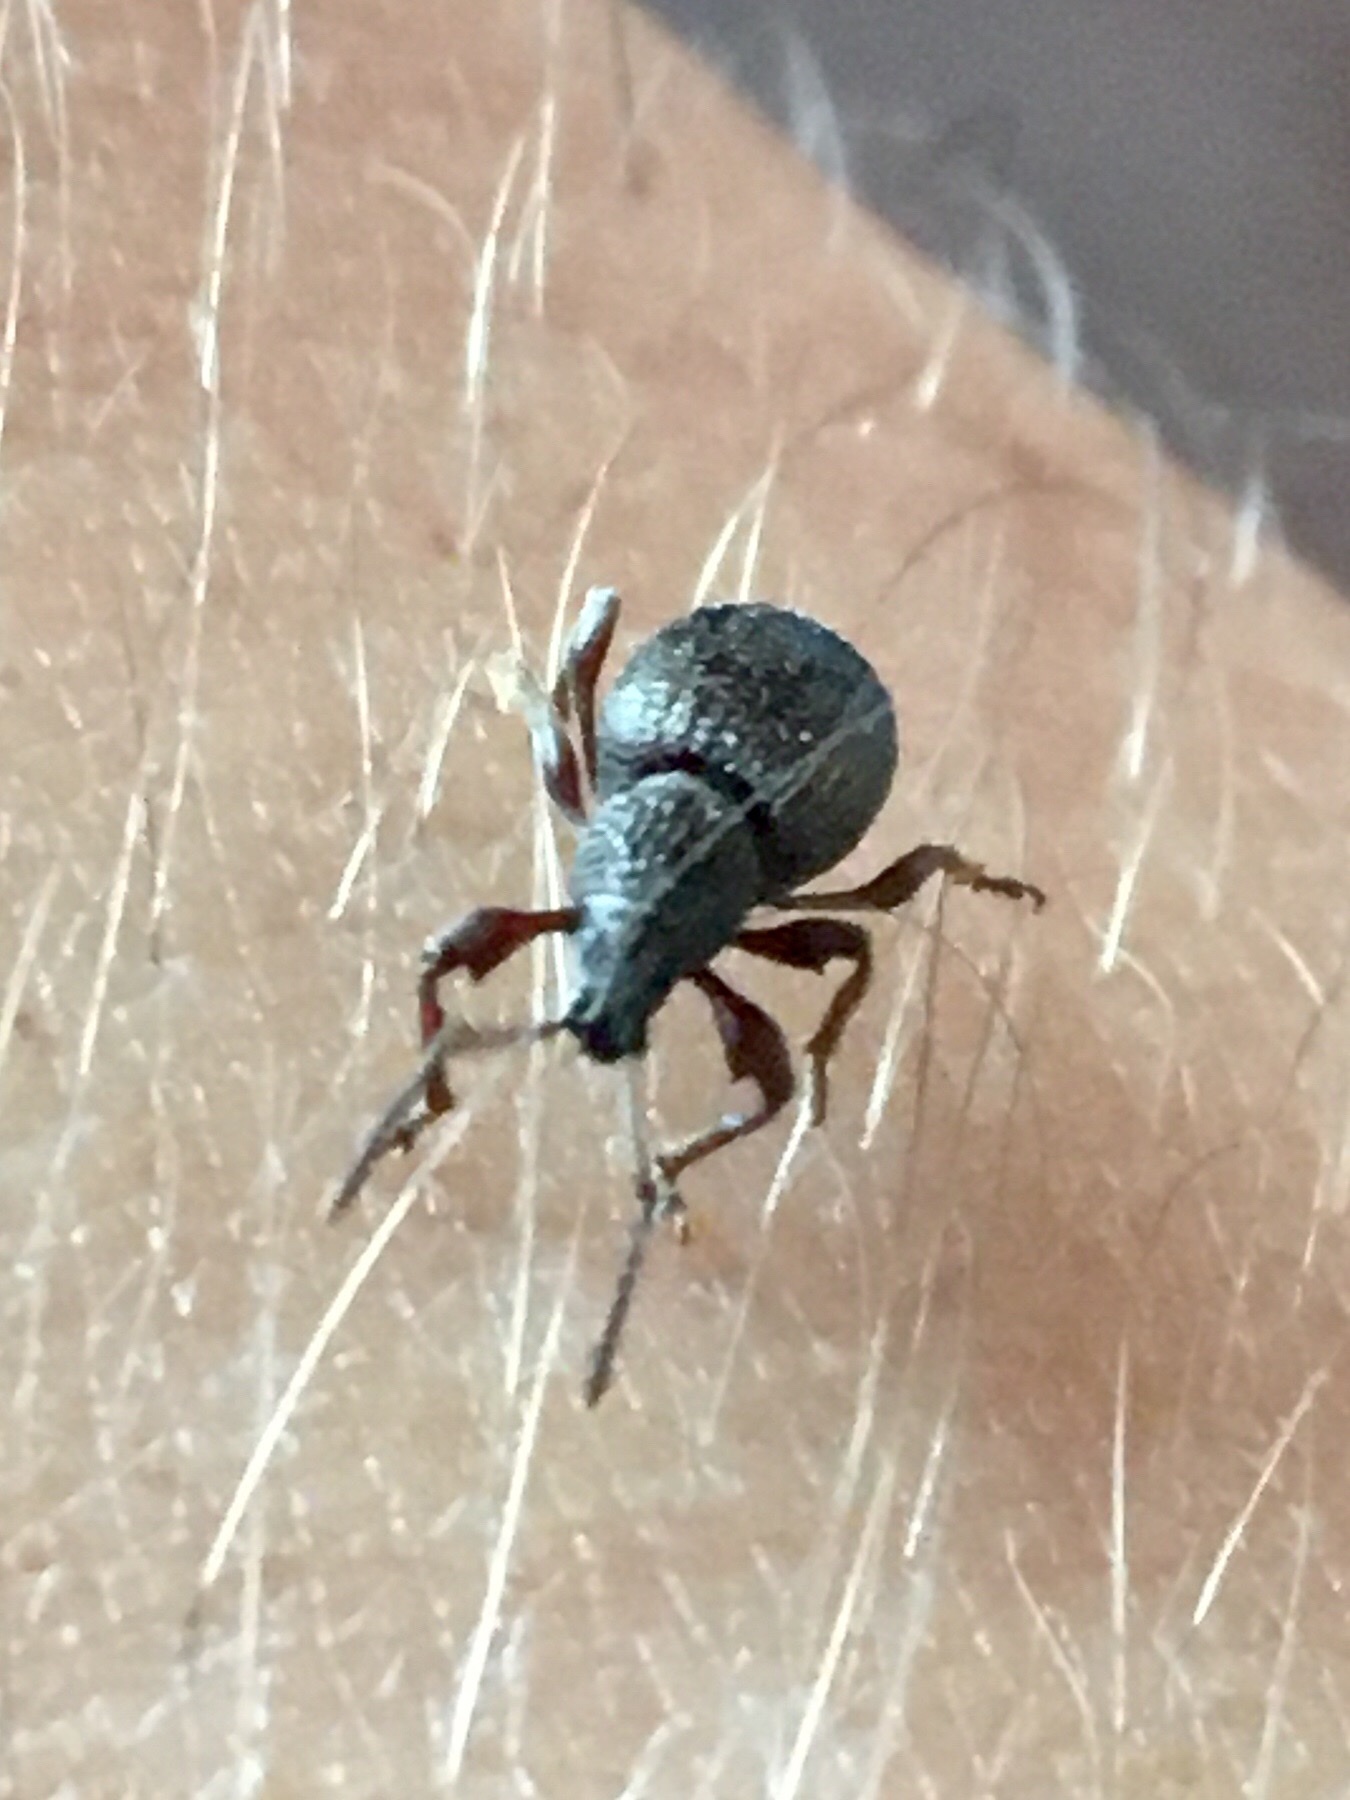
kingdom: Animalia
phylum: Arthropoda
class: Insecta
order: Coleoptera
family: Curculionidae
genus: Otiorhynchus
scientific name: Otiorhynchus ovatus
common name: Strawberry root weevil
